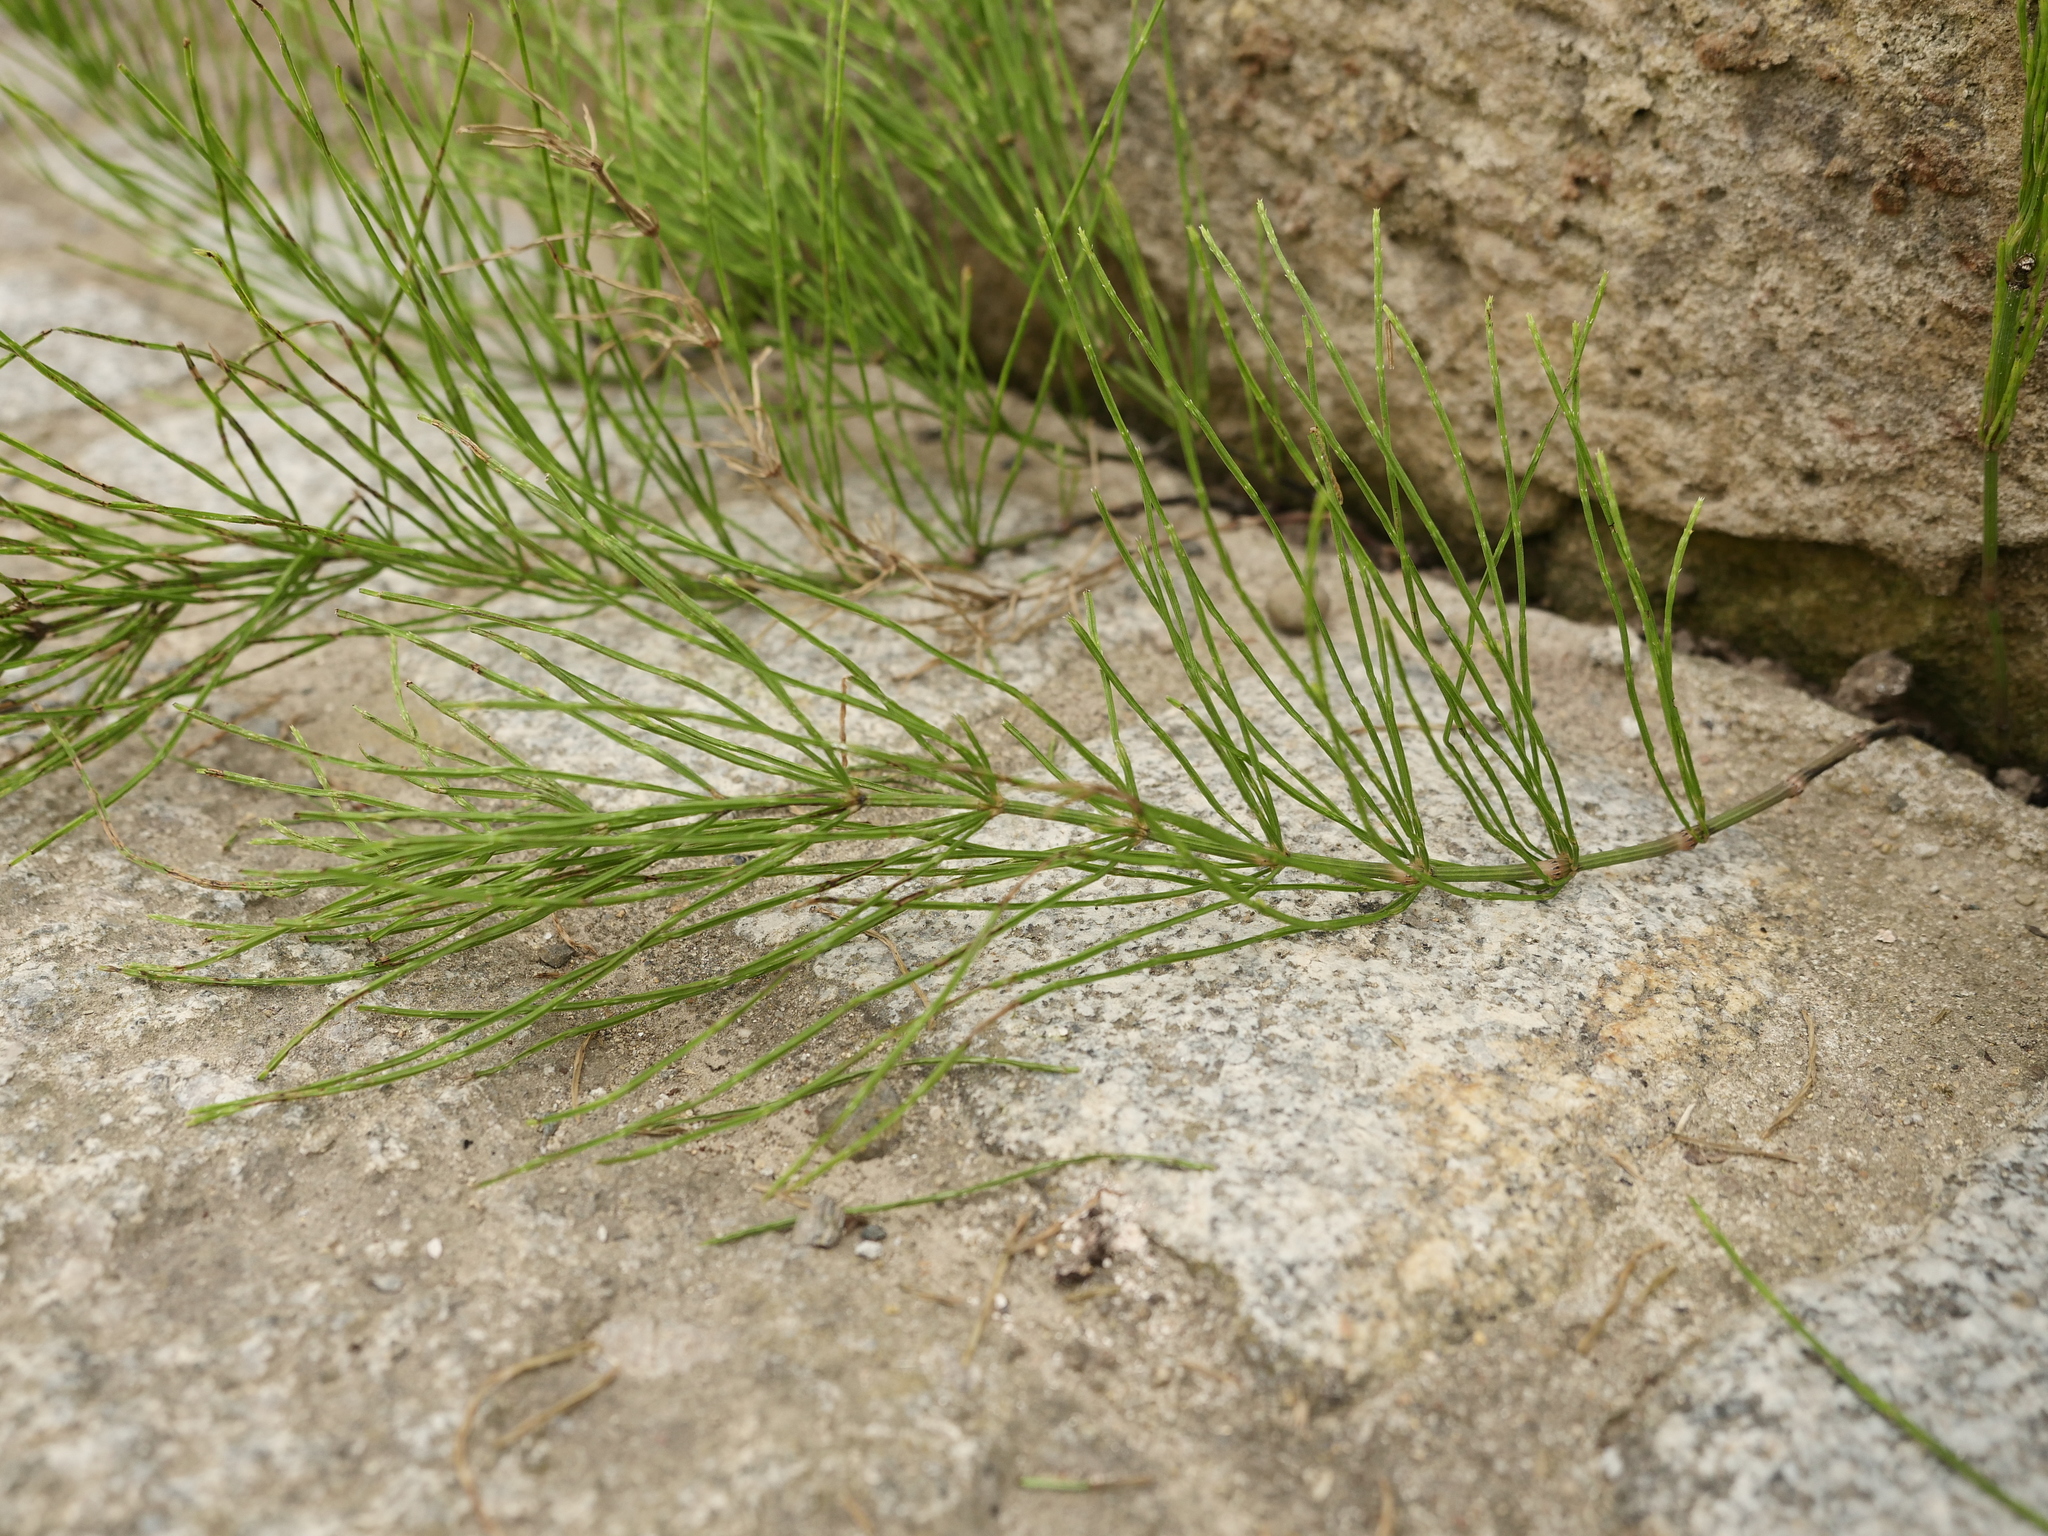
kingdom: Plantae
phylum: Tracheophyta
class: Polypodiopsida
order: Equisetales
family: Equisetaceae
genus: Equisetum
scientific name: Equisetum arvense
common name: Field horsetail
